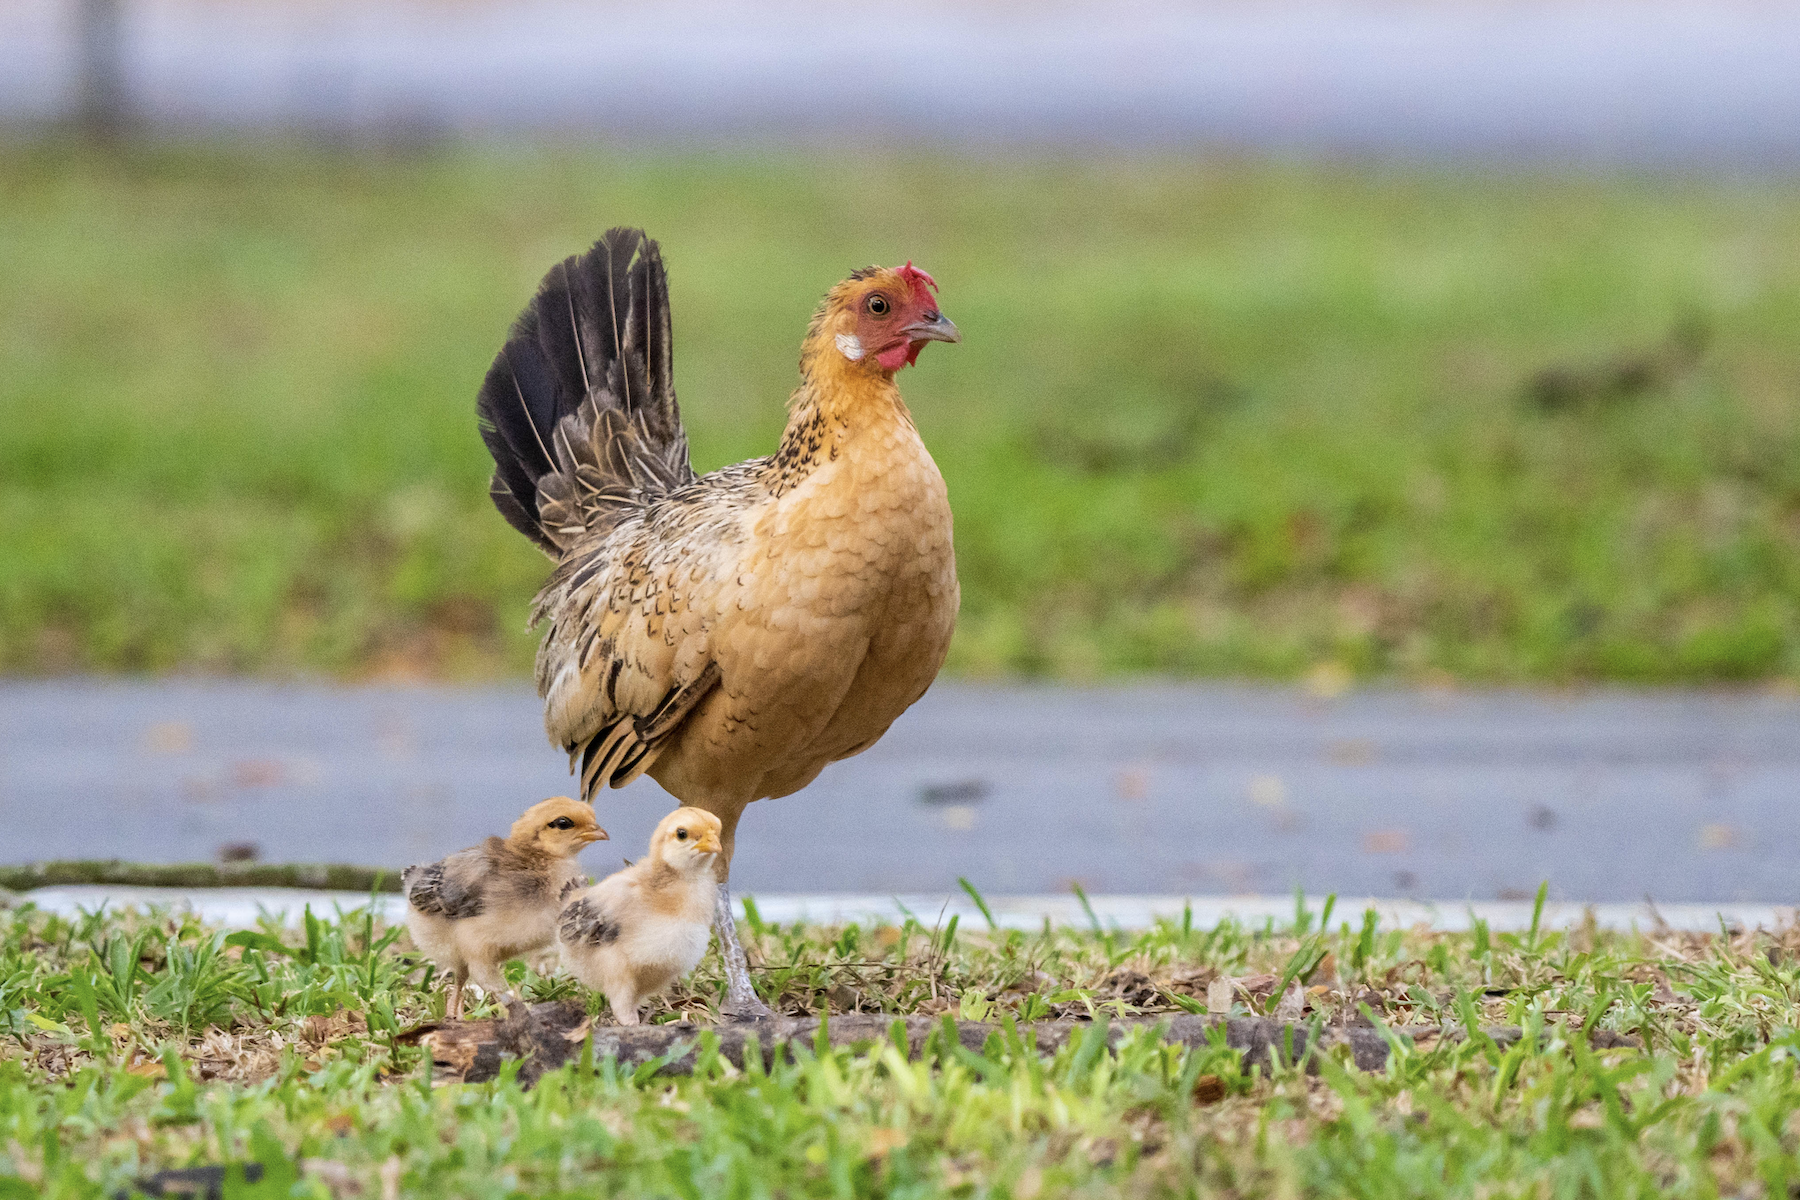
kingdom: Animalia
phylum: Chordata
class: Aves
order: Galliformes
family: Phasianidae
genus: Gallus
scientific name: Gallus gallus
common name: Red junglefowl
